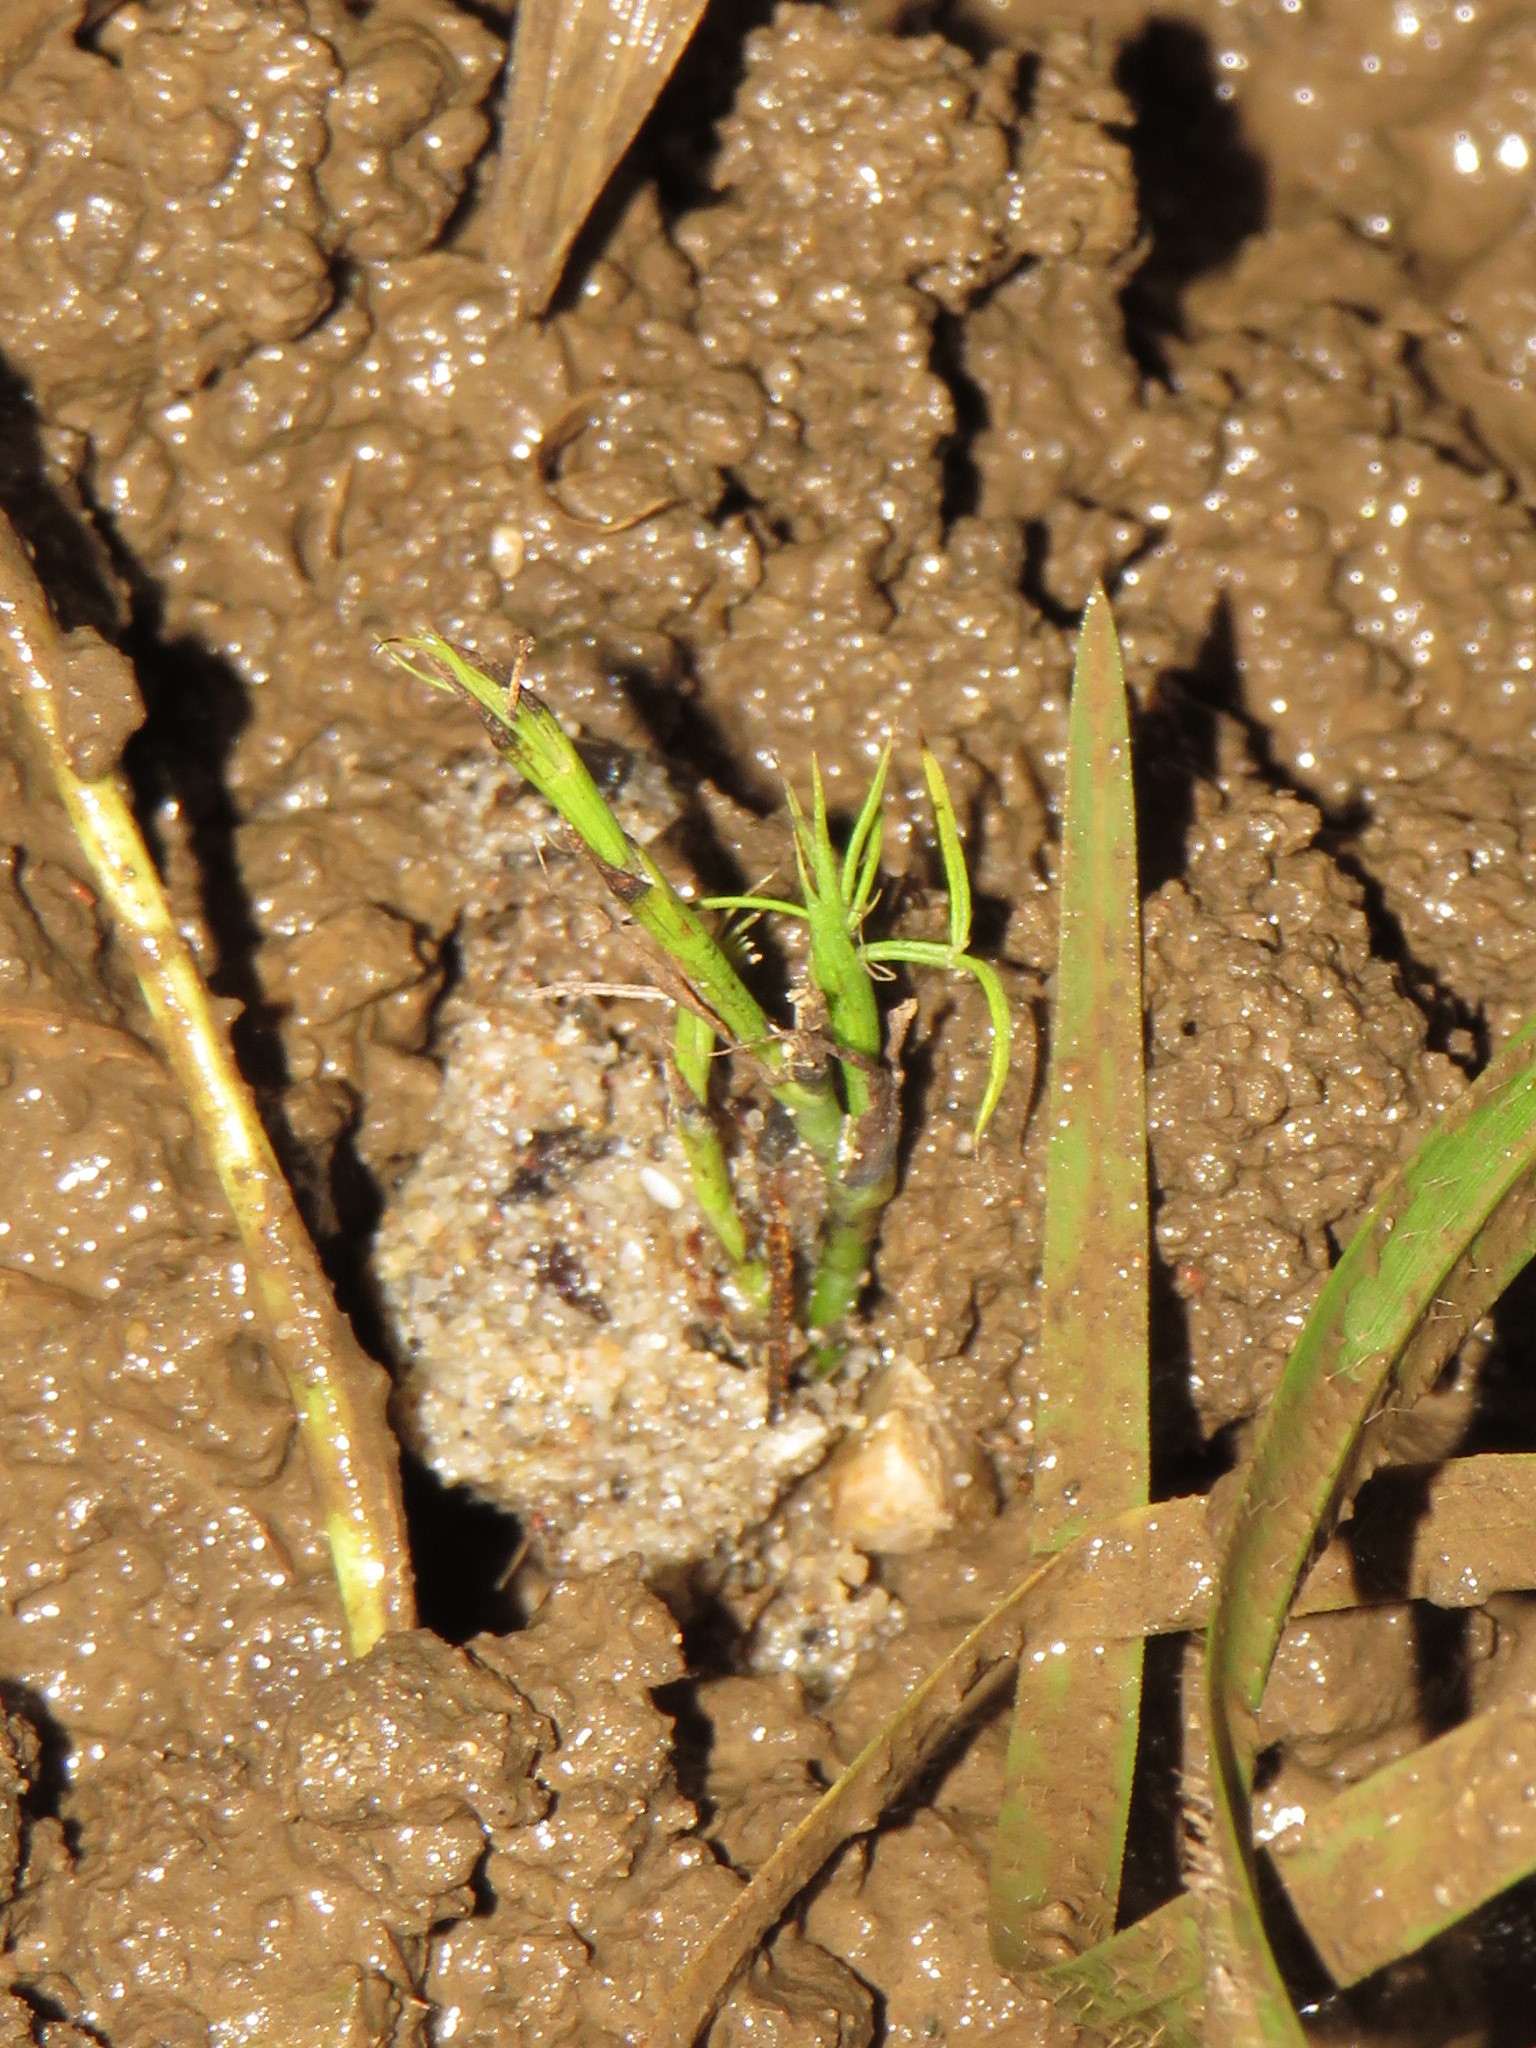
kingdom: Plantae
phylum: Tracheophyta
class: Magnoliopsida
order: Fabales
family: Fabaceae
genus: Psoralea
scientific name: Psoralea fascicularis
